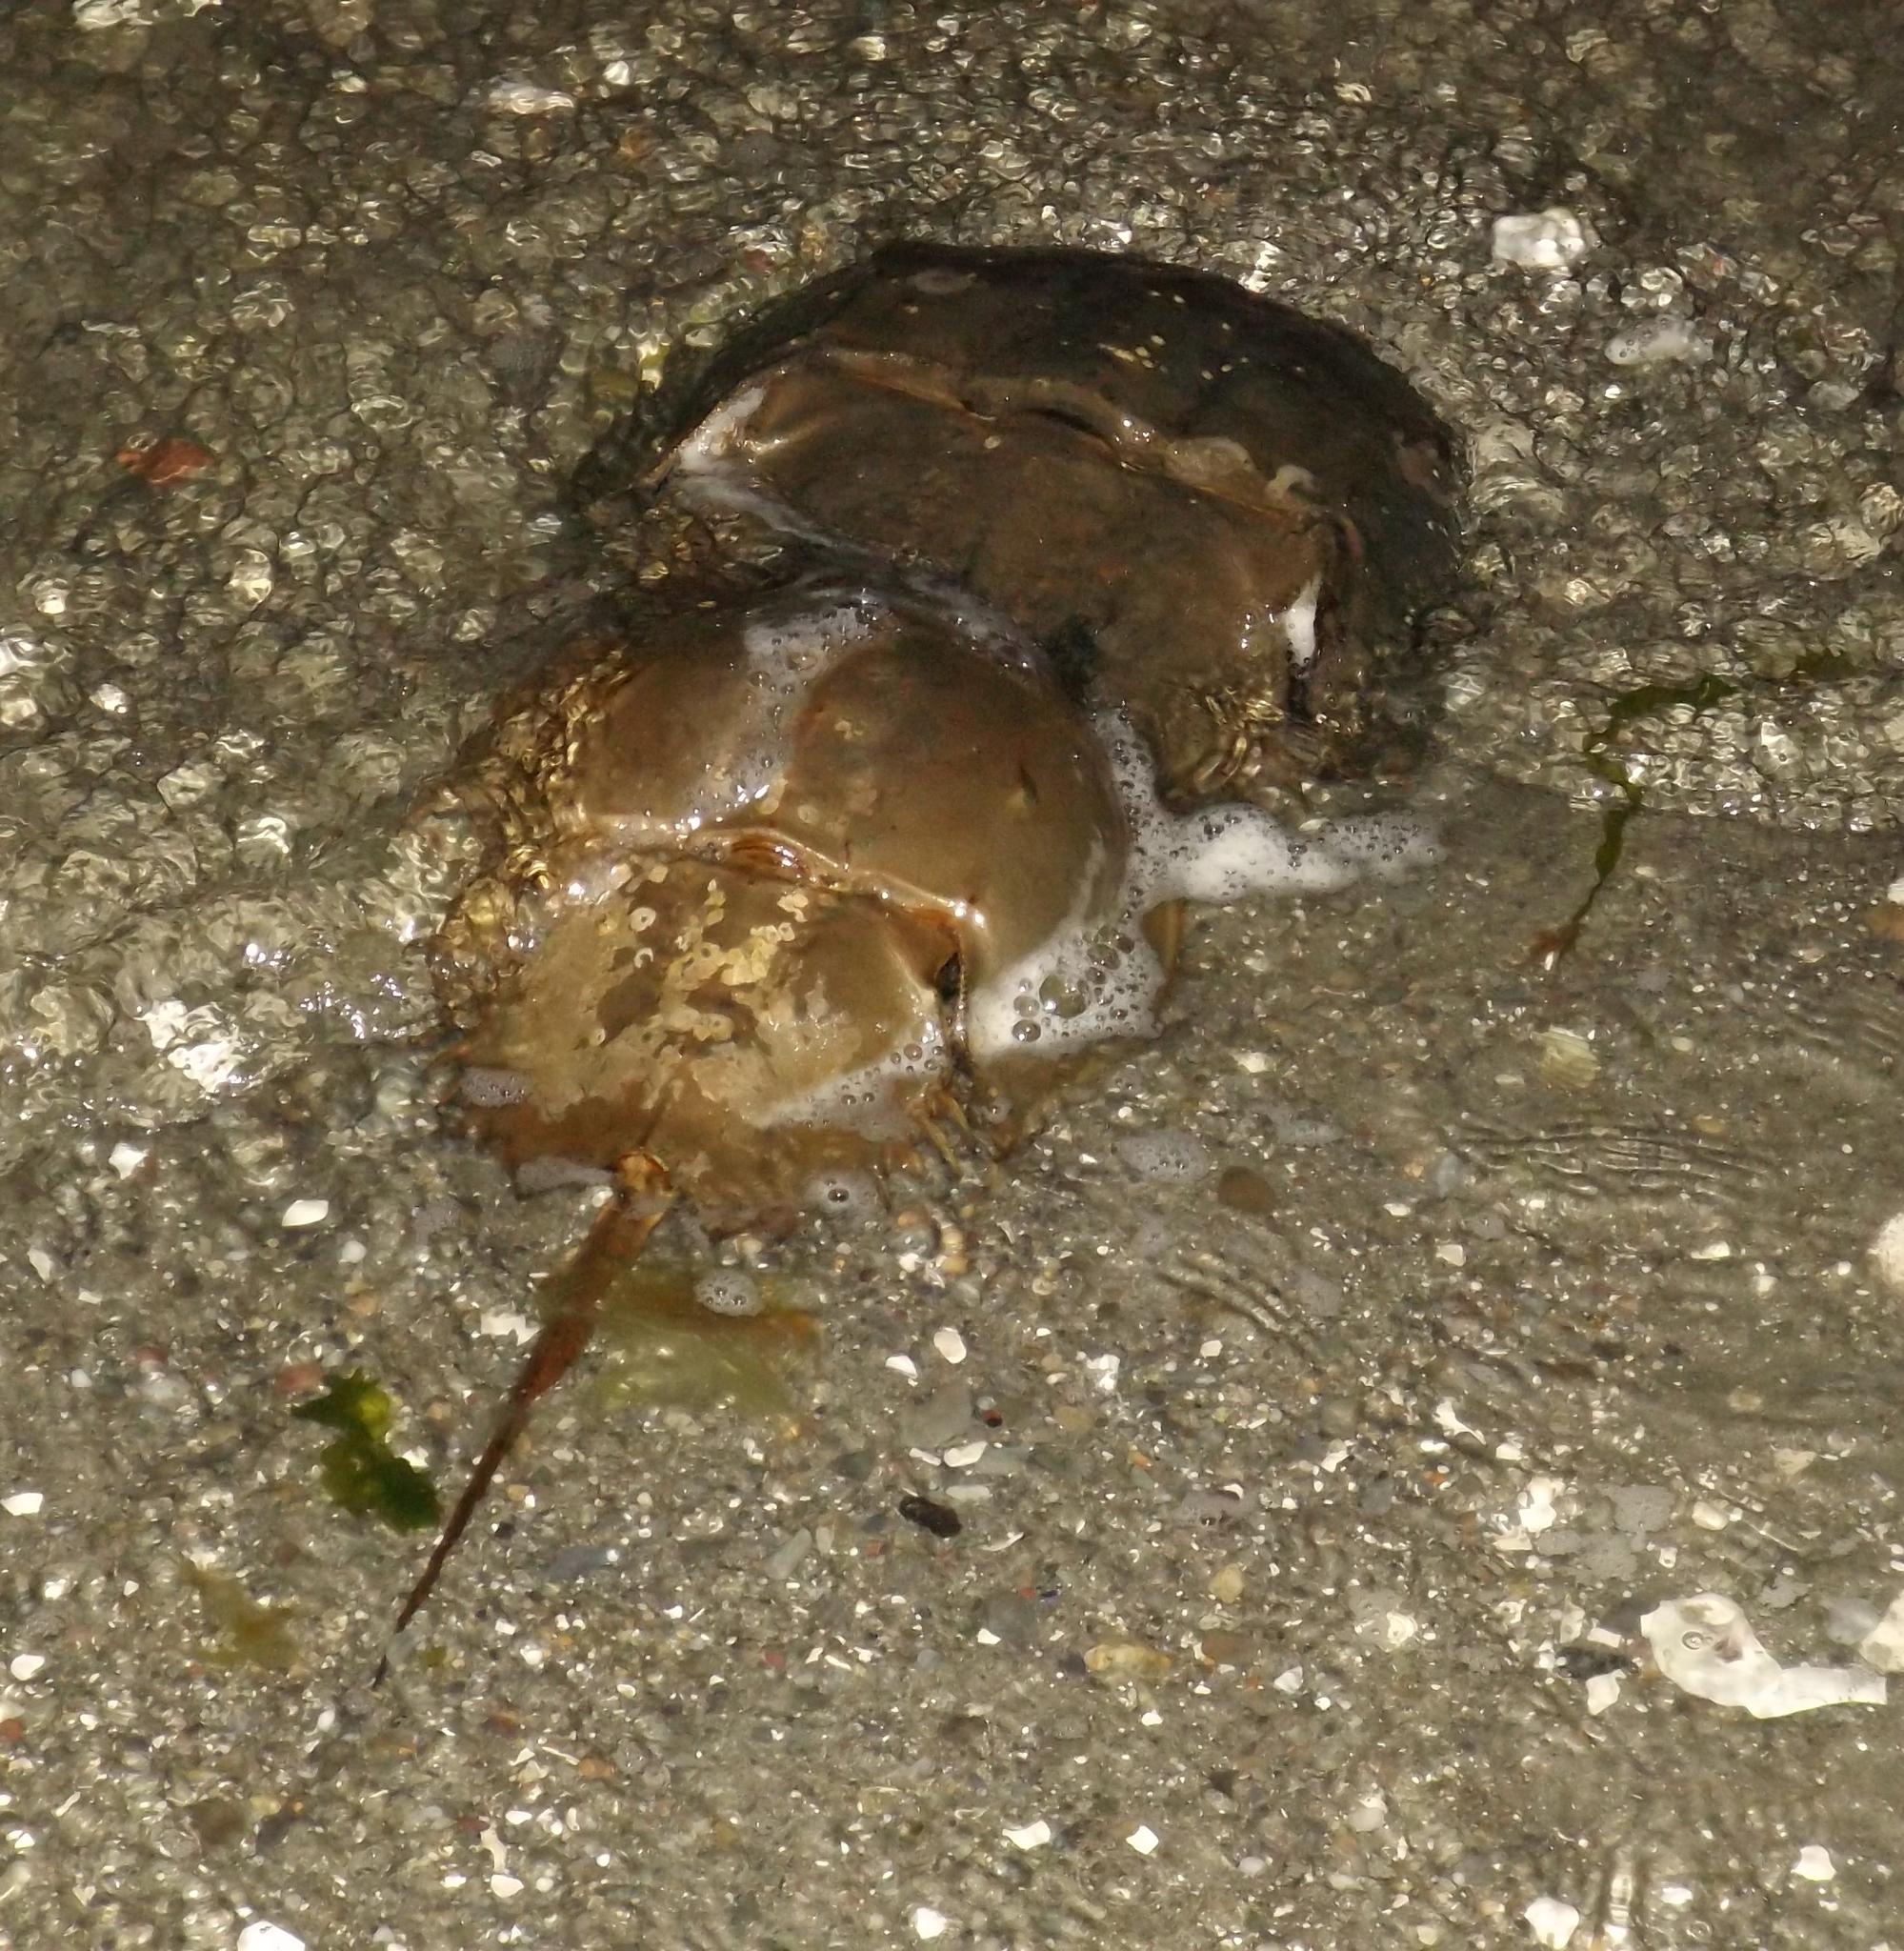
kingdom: Animalia
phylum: Arthropoda
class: Merostomata
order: Xiphosurida
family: Limulidae
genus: Limulus
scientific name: Limulus polyphemus
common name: Horseshoe crab
